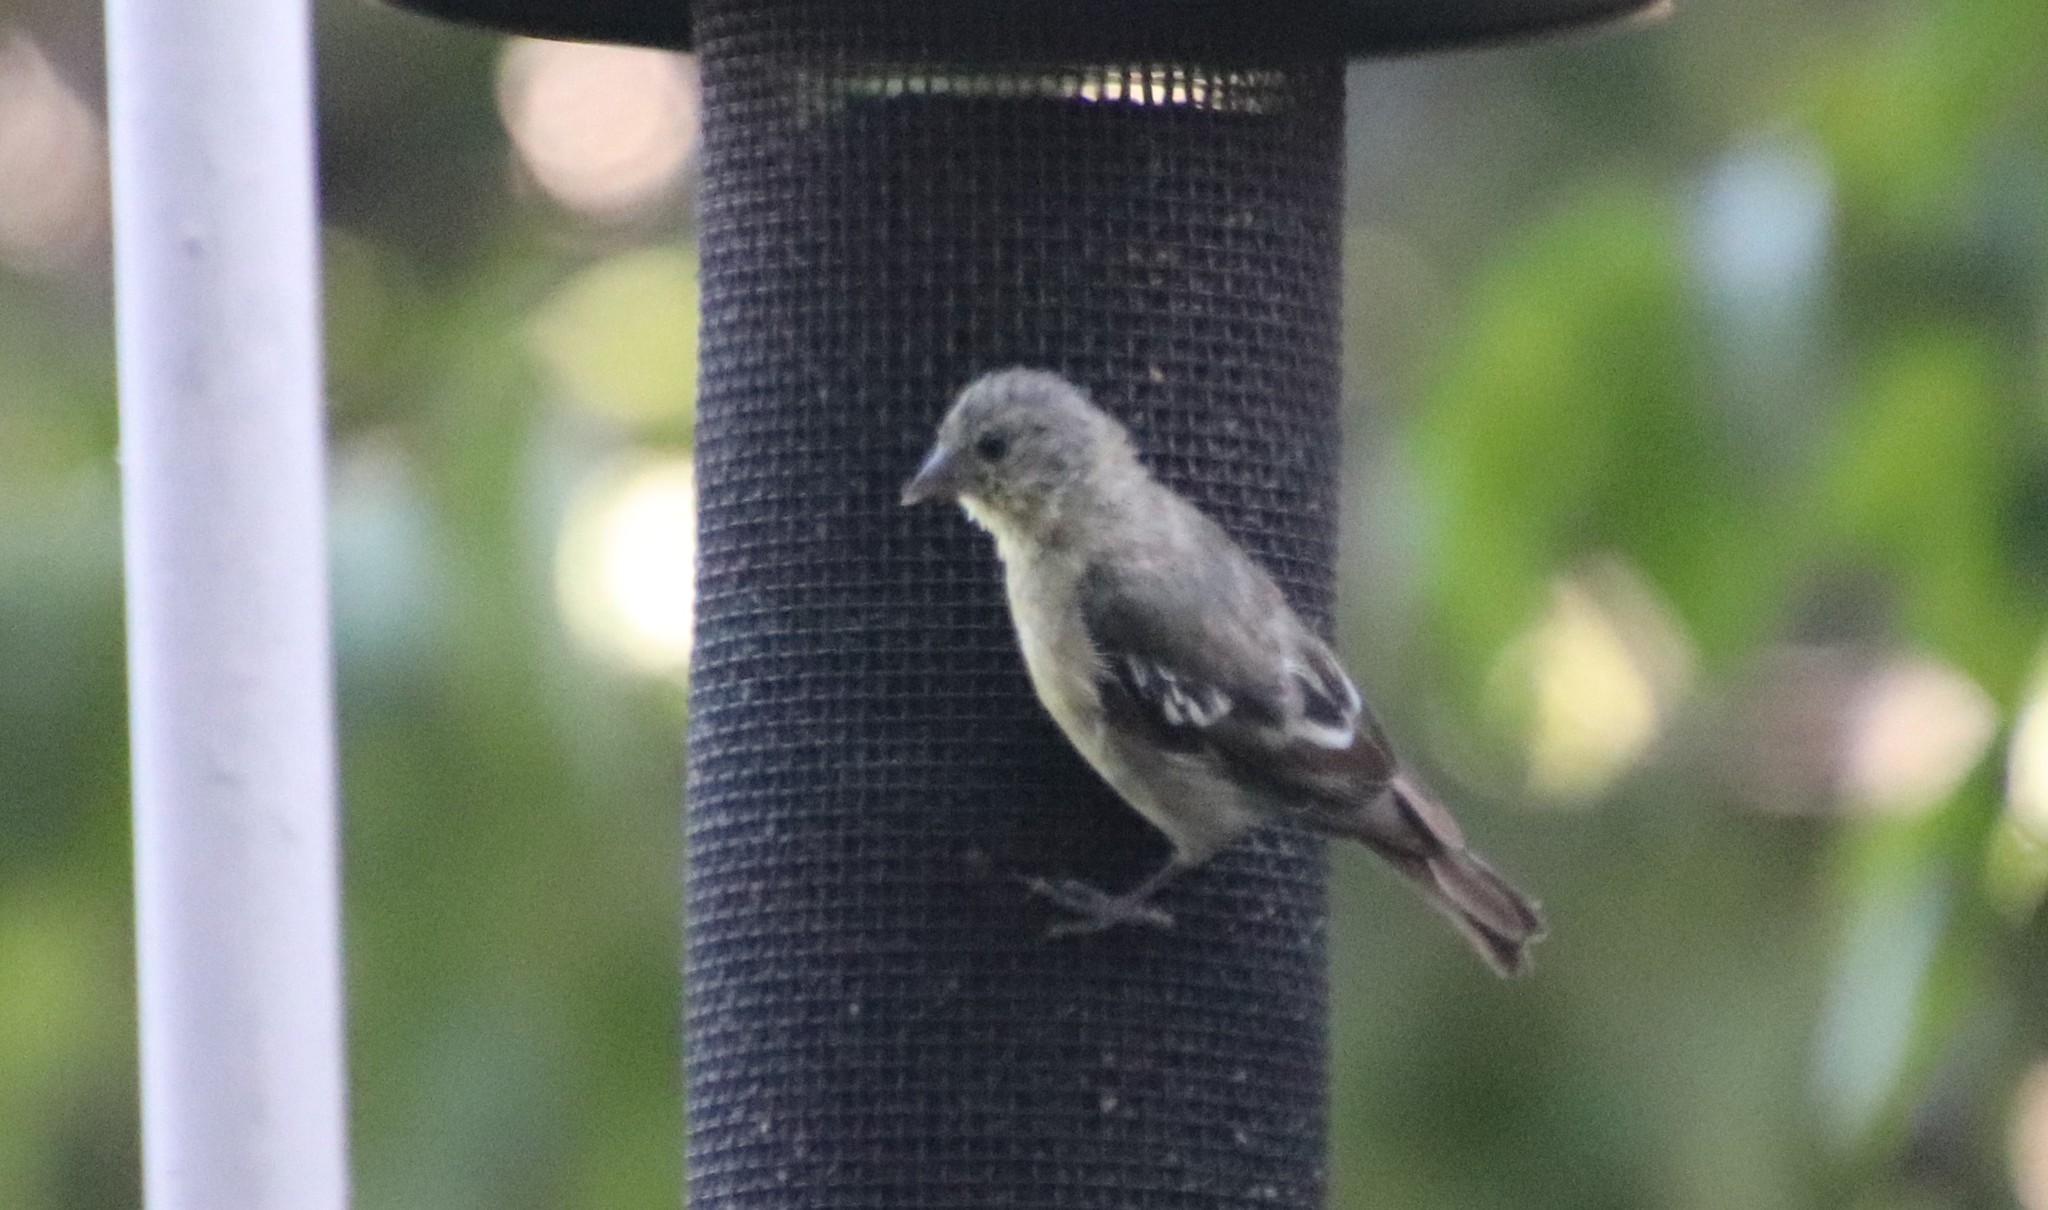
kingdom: Animalia
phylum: Chordata
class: Aves
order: Passeriformes
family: Fringillidae
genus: Spinus
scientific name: Spinus psaltria
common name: Lesser goldfinch
